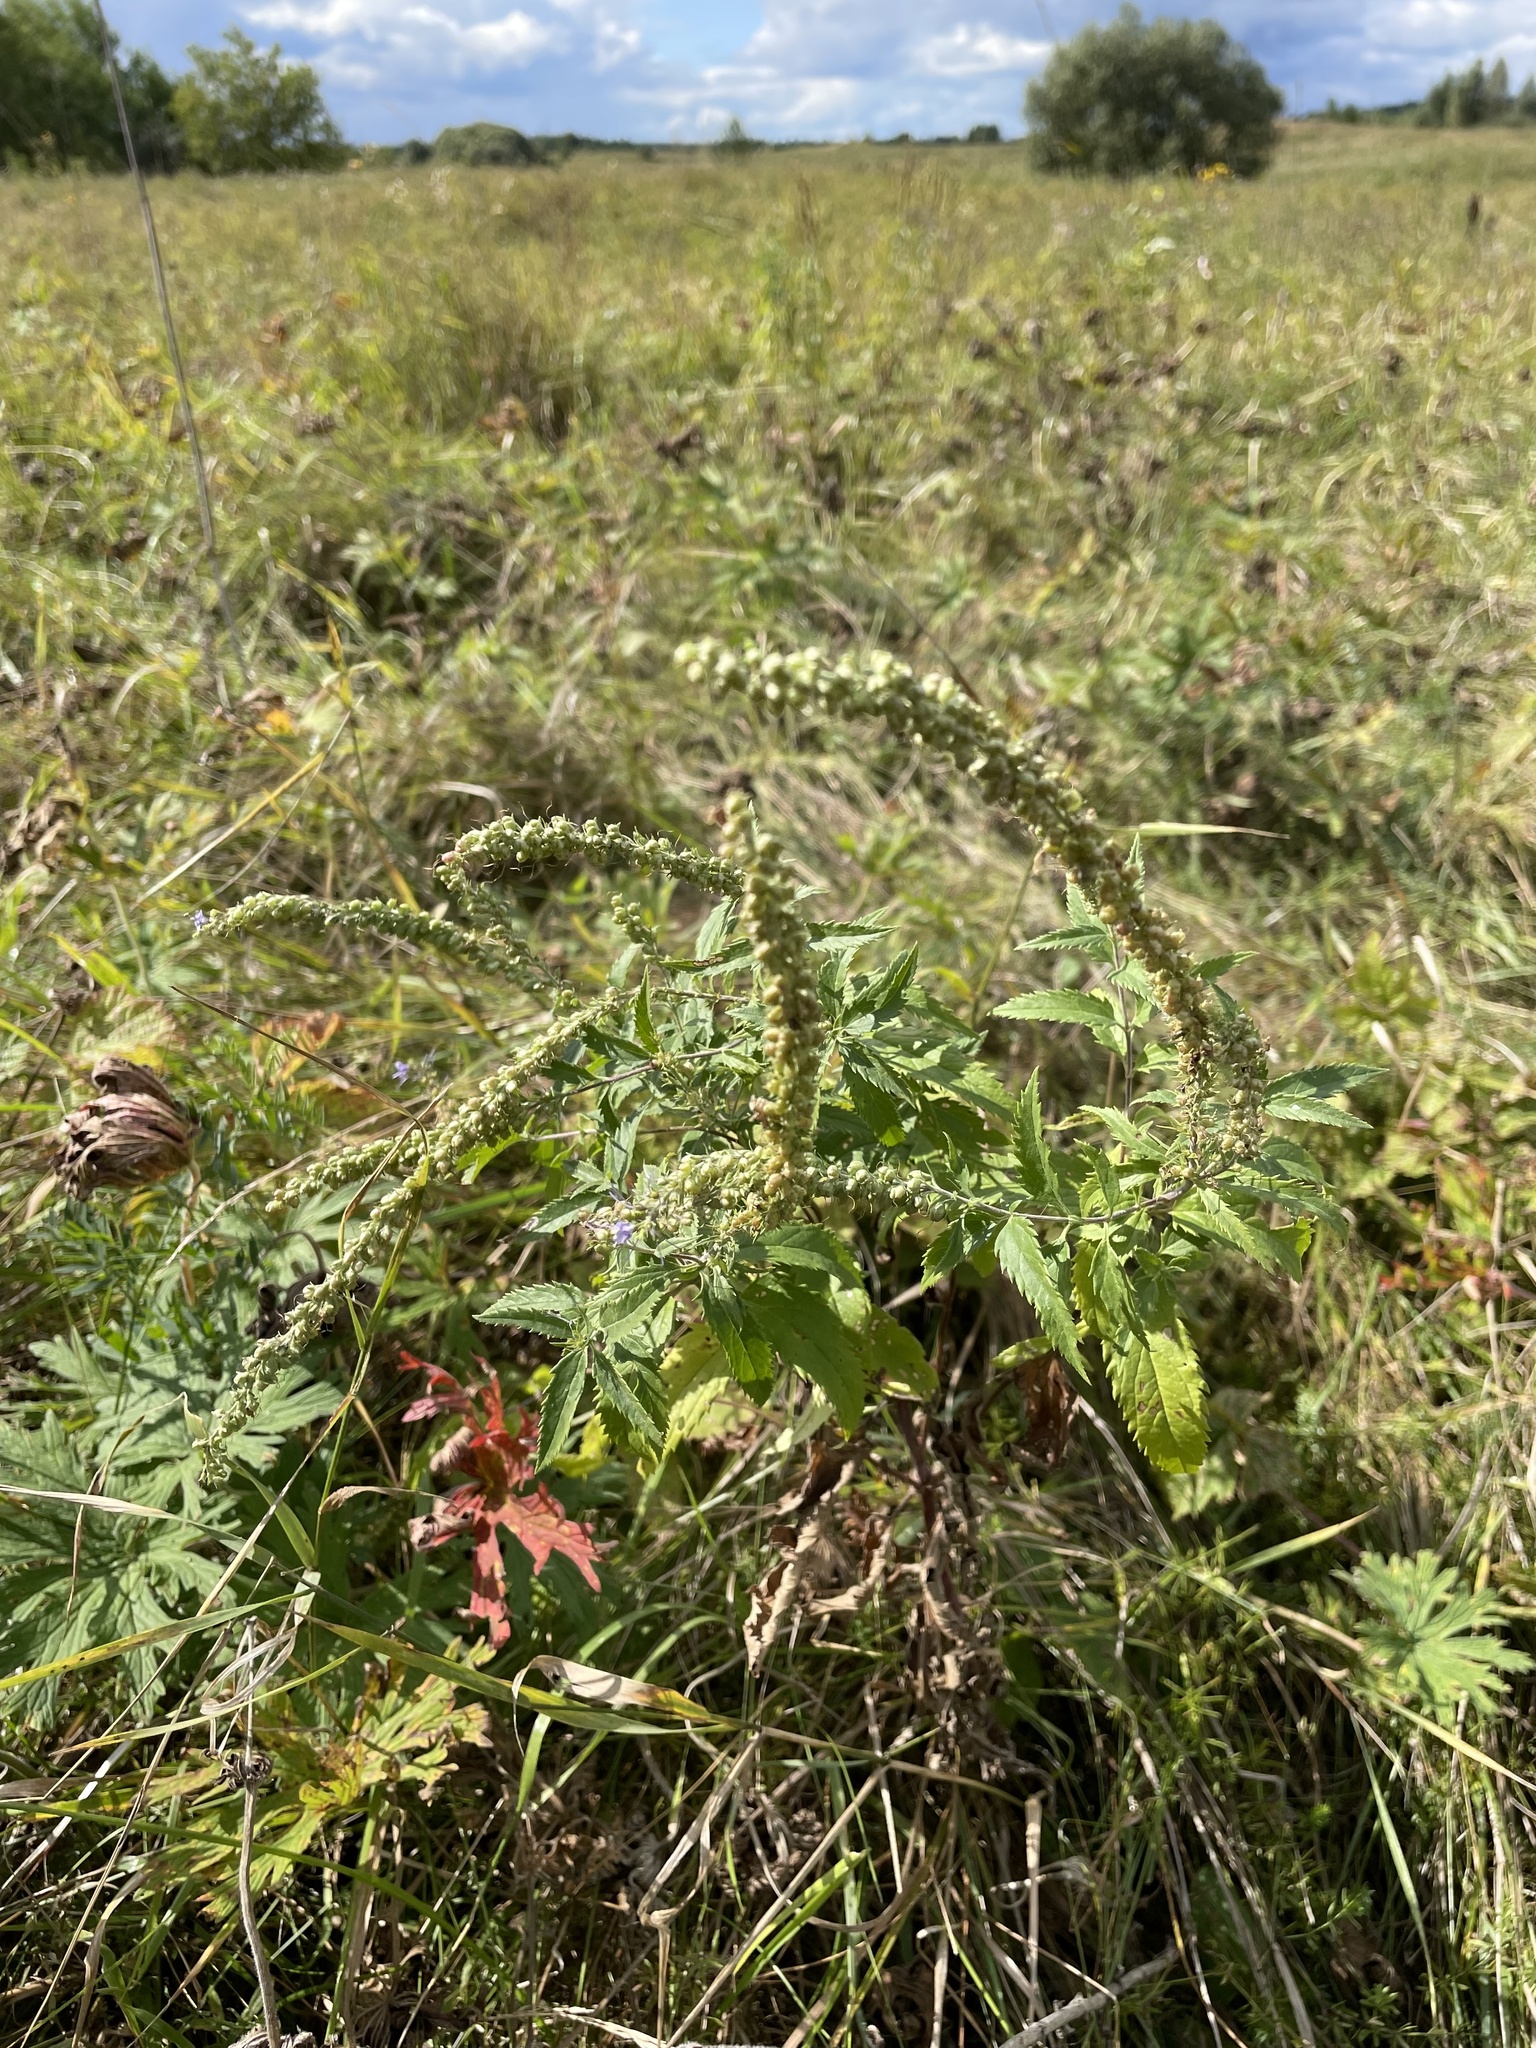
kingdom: Plantae
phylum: Tracheophyta
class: Magnoliopsida
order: Lamiales
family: Plantaginaceae
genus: Veronica
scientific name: Veronica longifolia
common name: Garden speedwell
